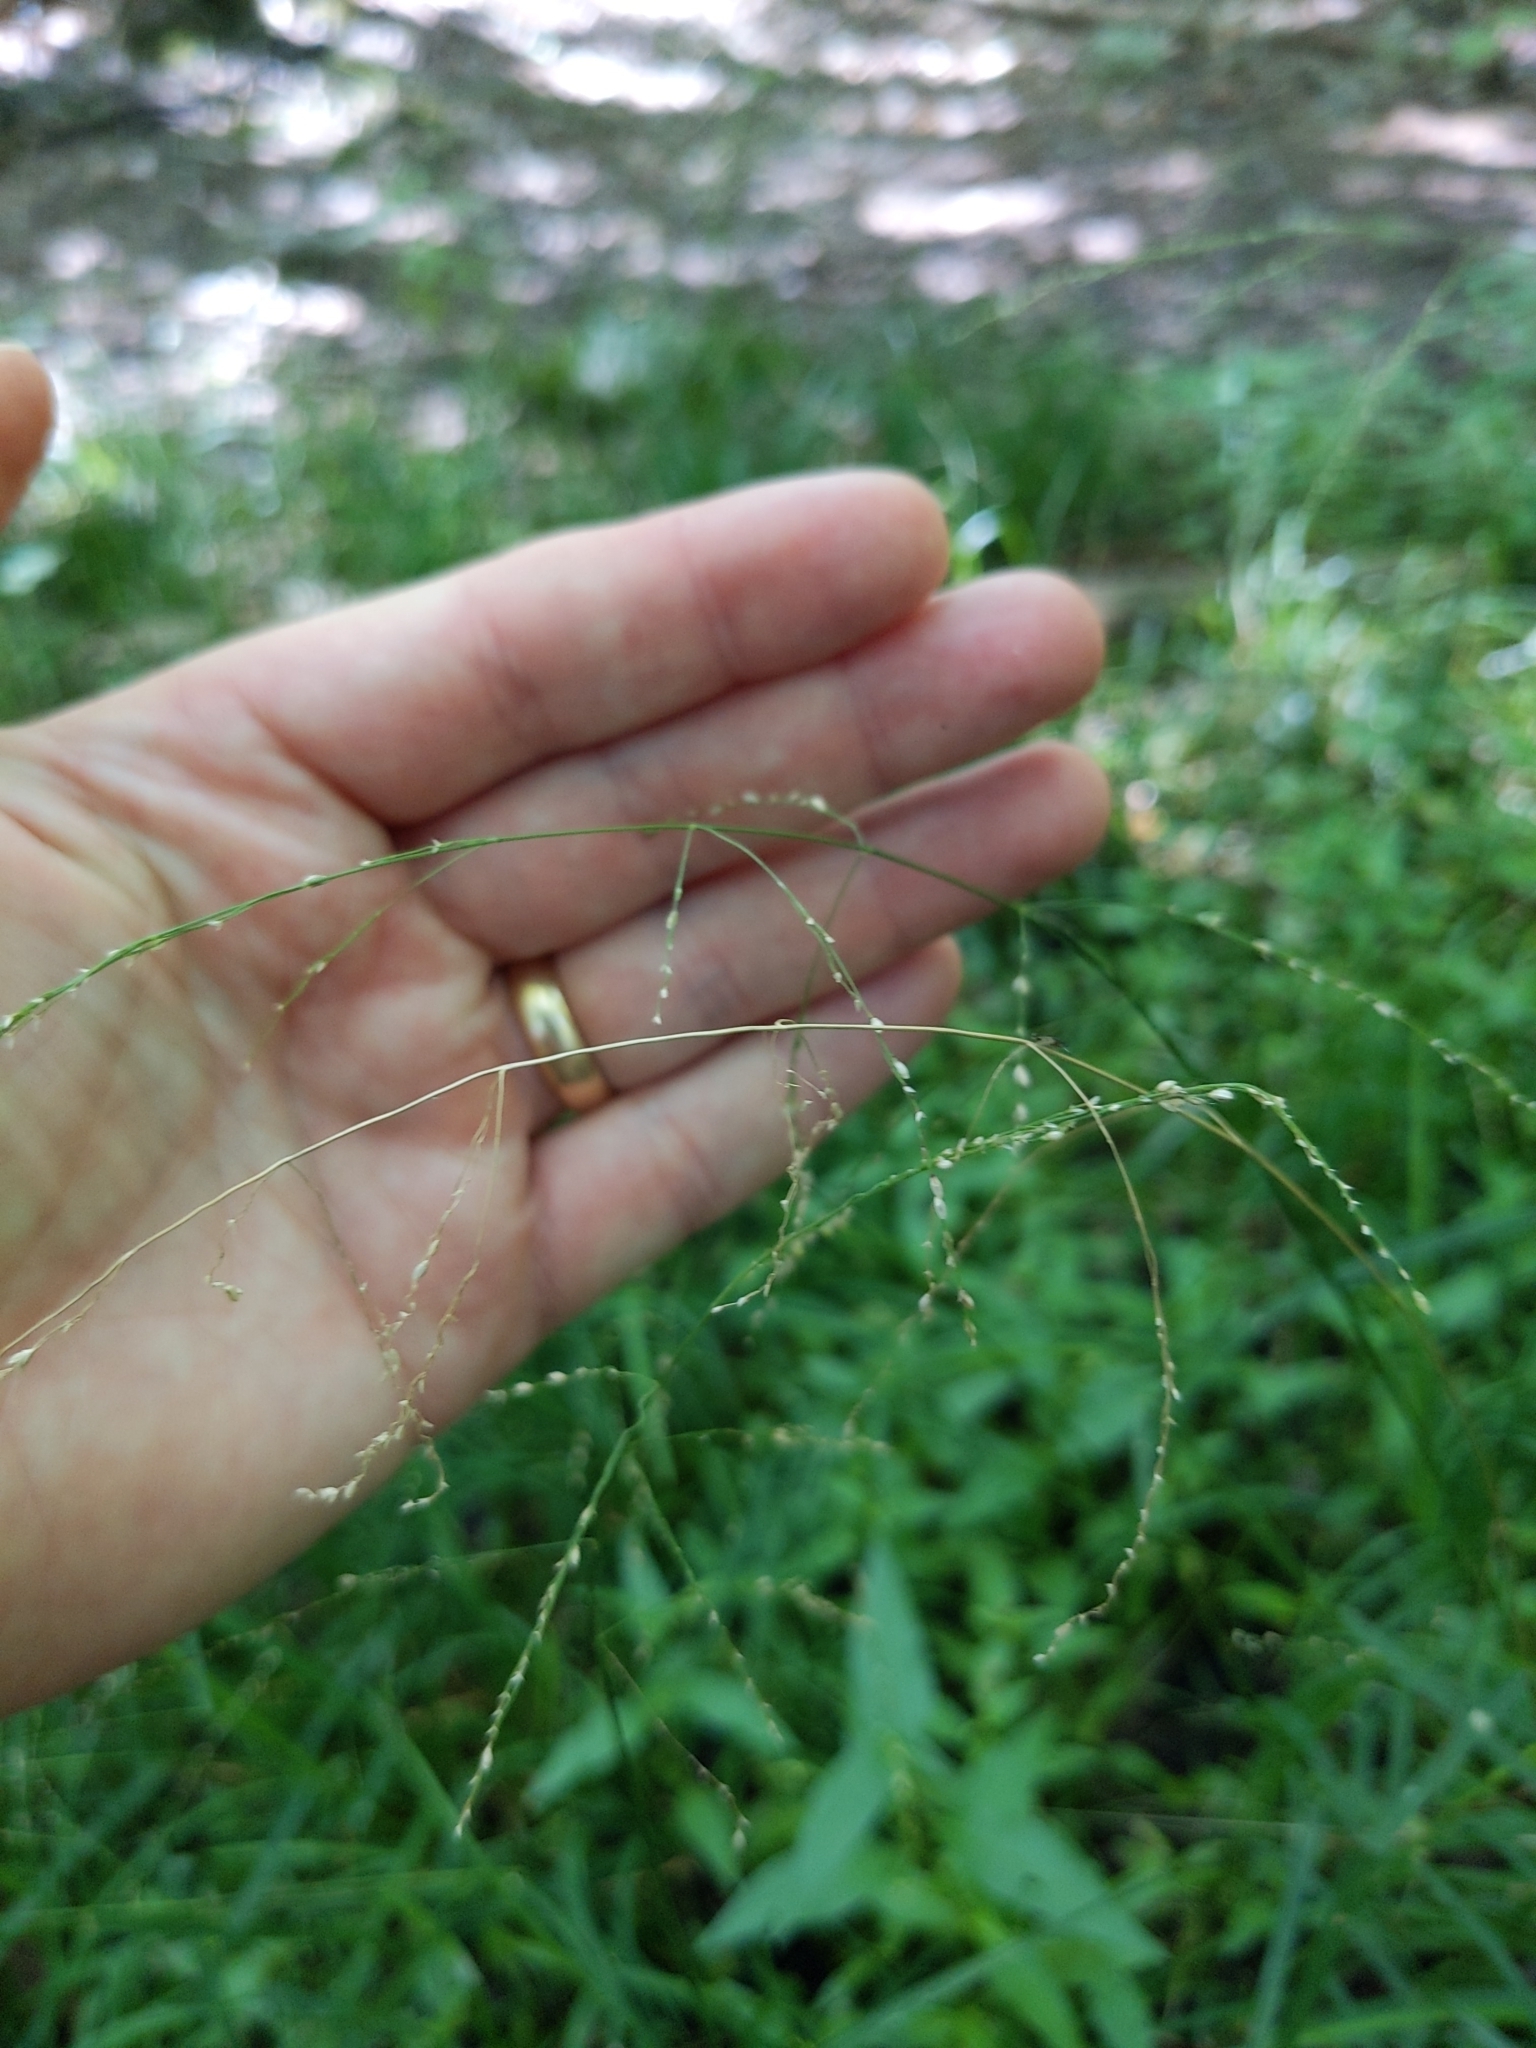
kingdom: Plantae
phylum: Tracheophyta
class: Liliopsida
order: Poales
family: Poaceae
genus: Glyceria
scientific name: Glyceria striata
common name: Fowl manna grass
